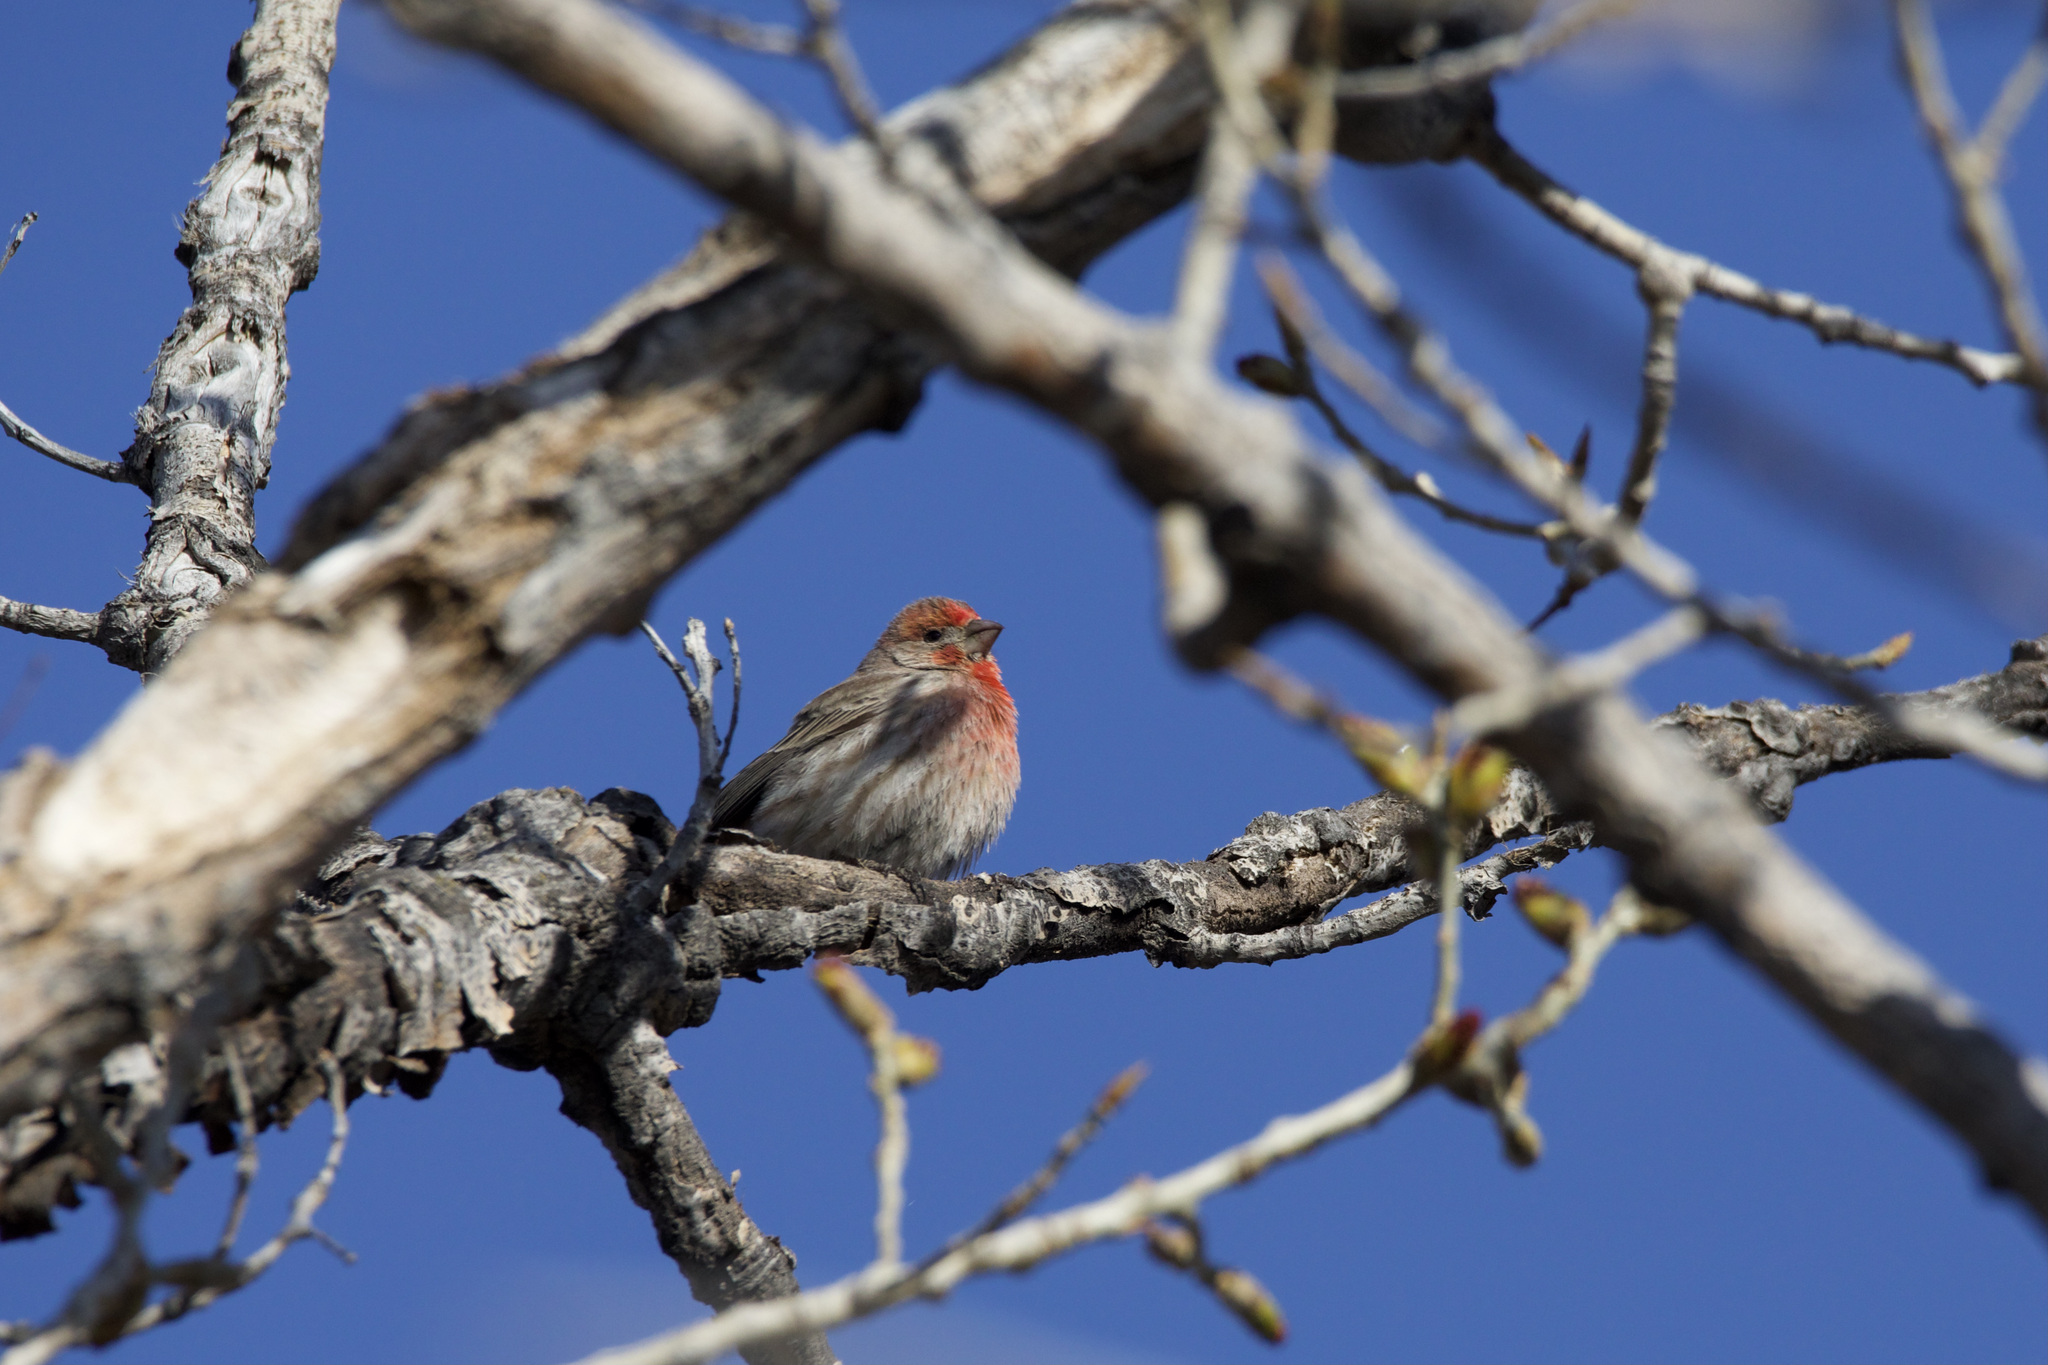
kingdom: Animalia
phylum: Chordata
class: Aves
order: Passeriformes
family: Fringillidae
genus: Haemorhous
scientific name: Haemorhous mexicanus
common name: House finch
